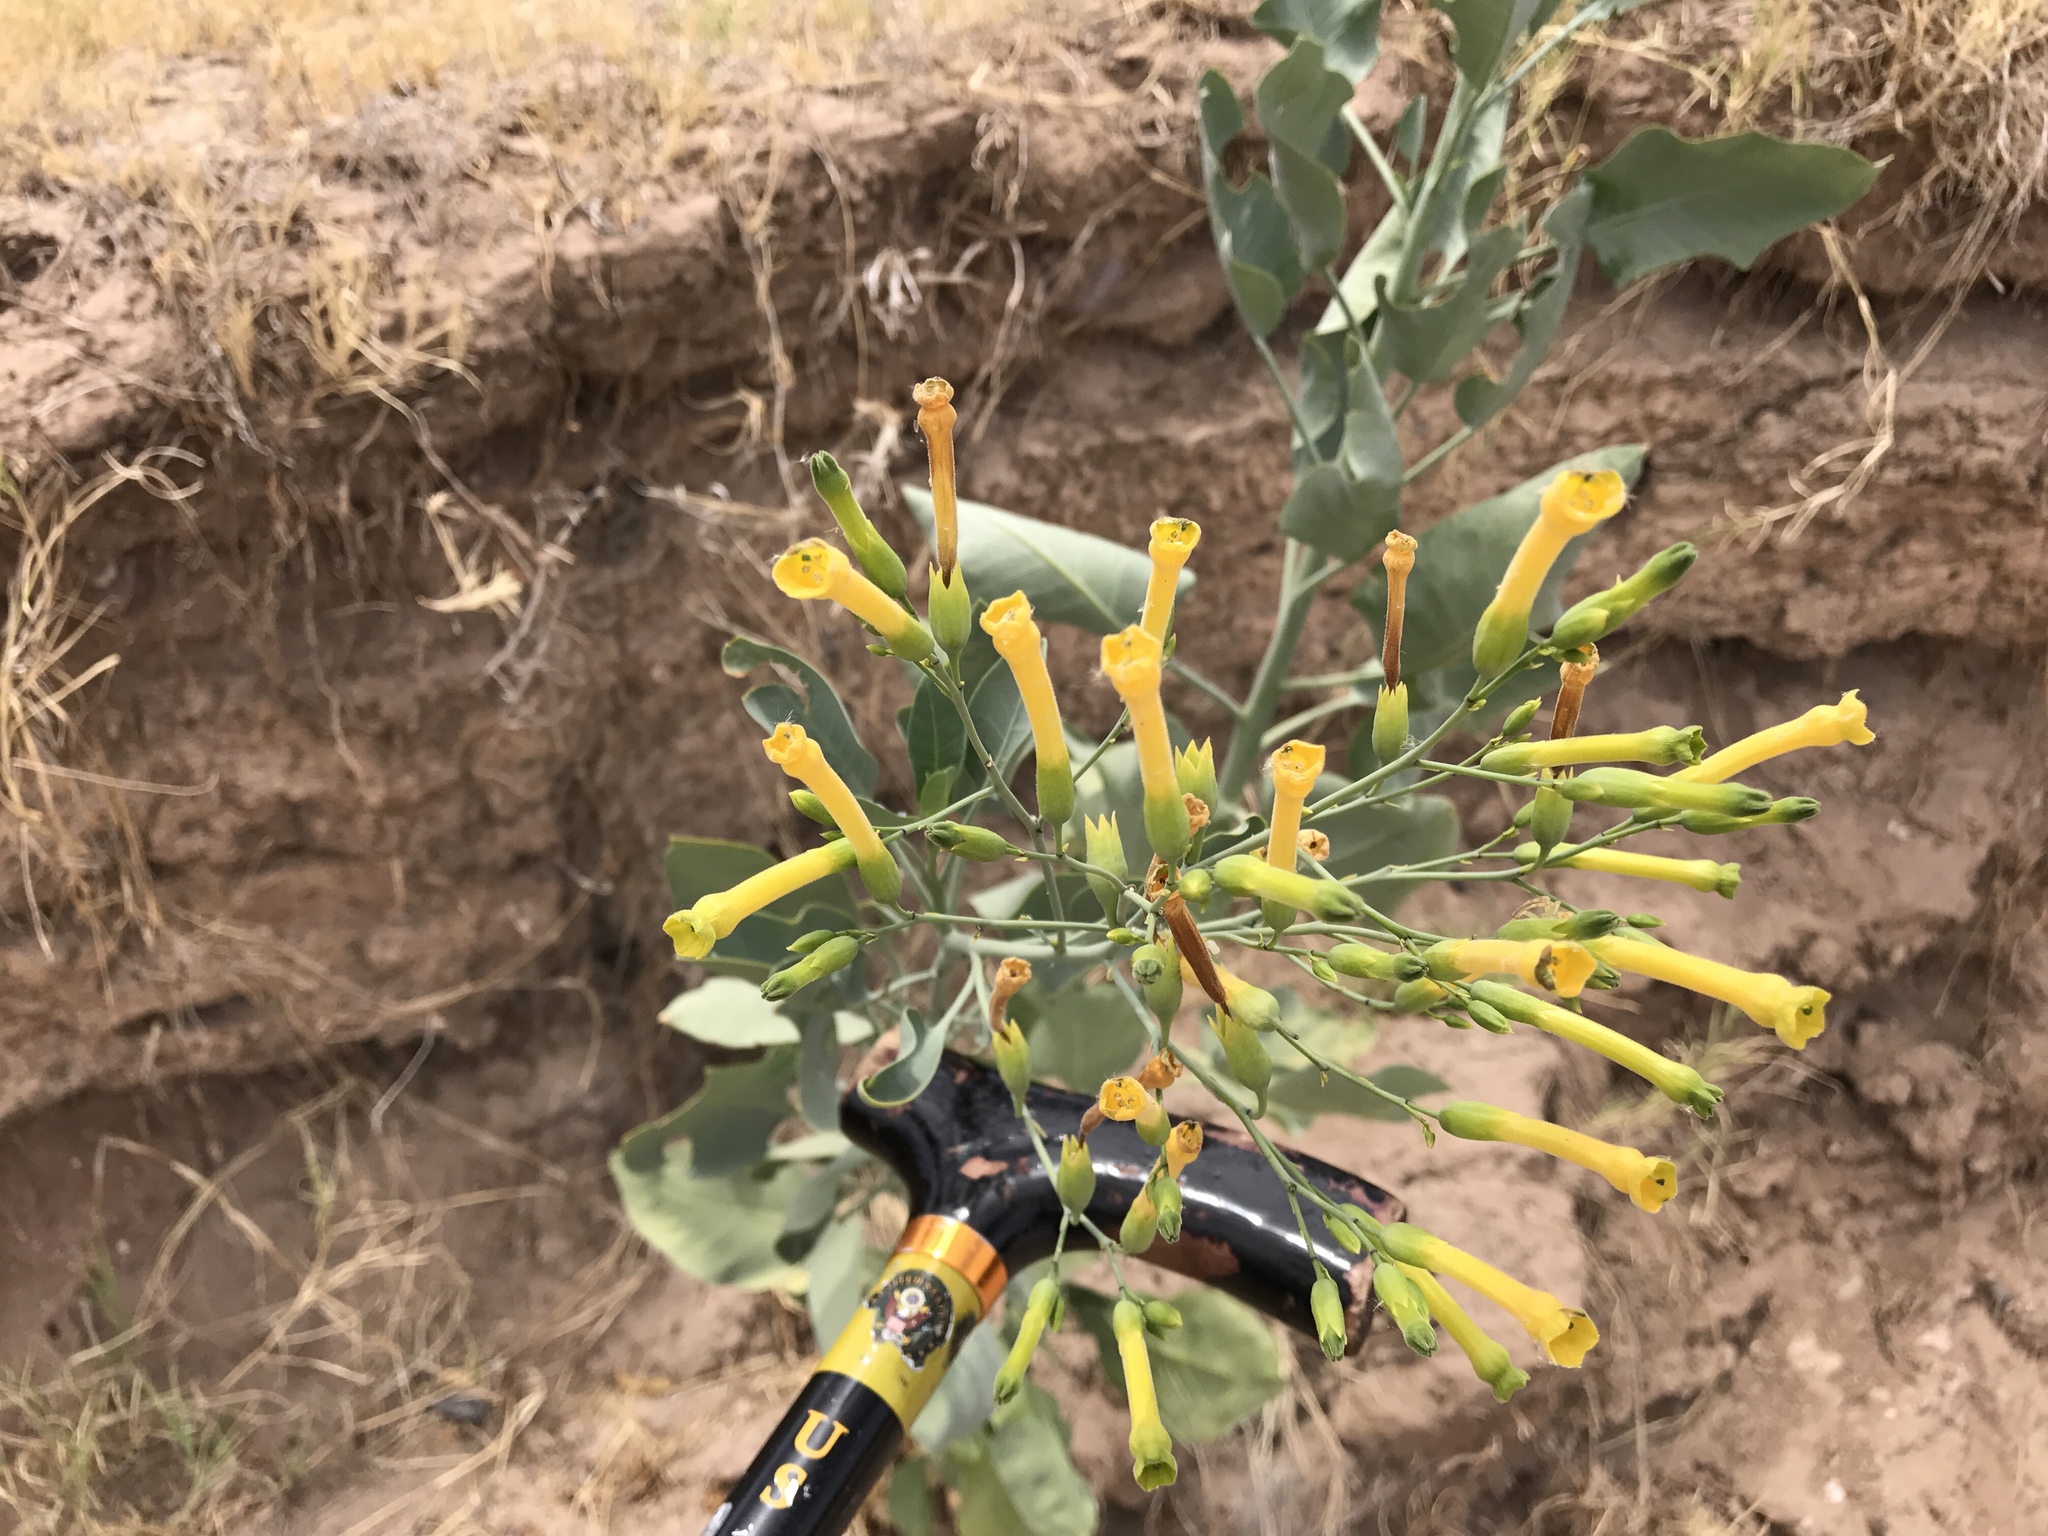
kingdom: Plantae
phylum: Tracheophyta
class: Magnoliopsida
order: Solanales
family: Solanaceae
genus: Nicotiana
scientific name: Nicotiana glauca
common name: Tree tobacco
